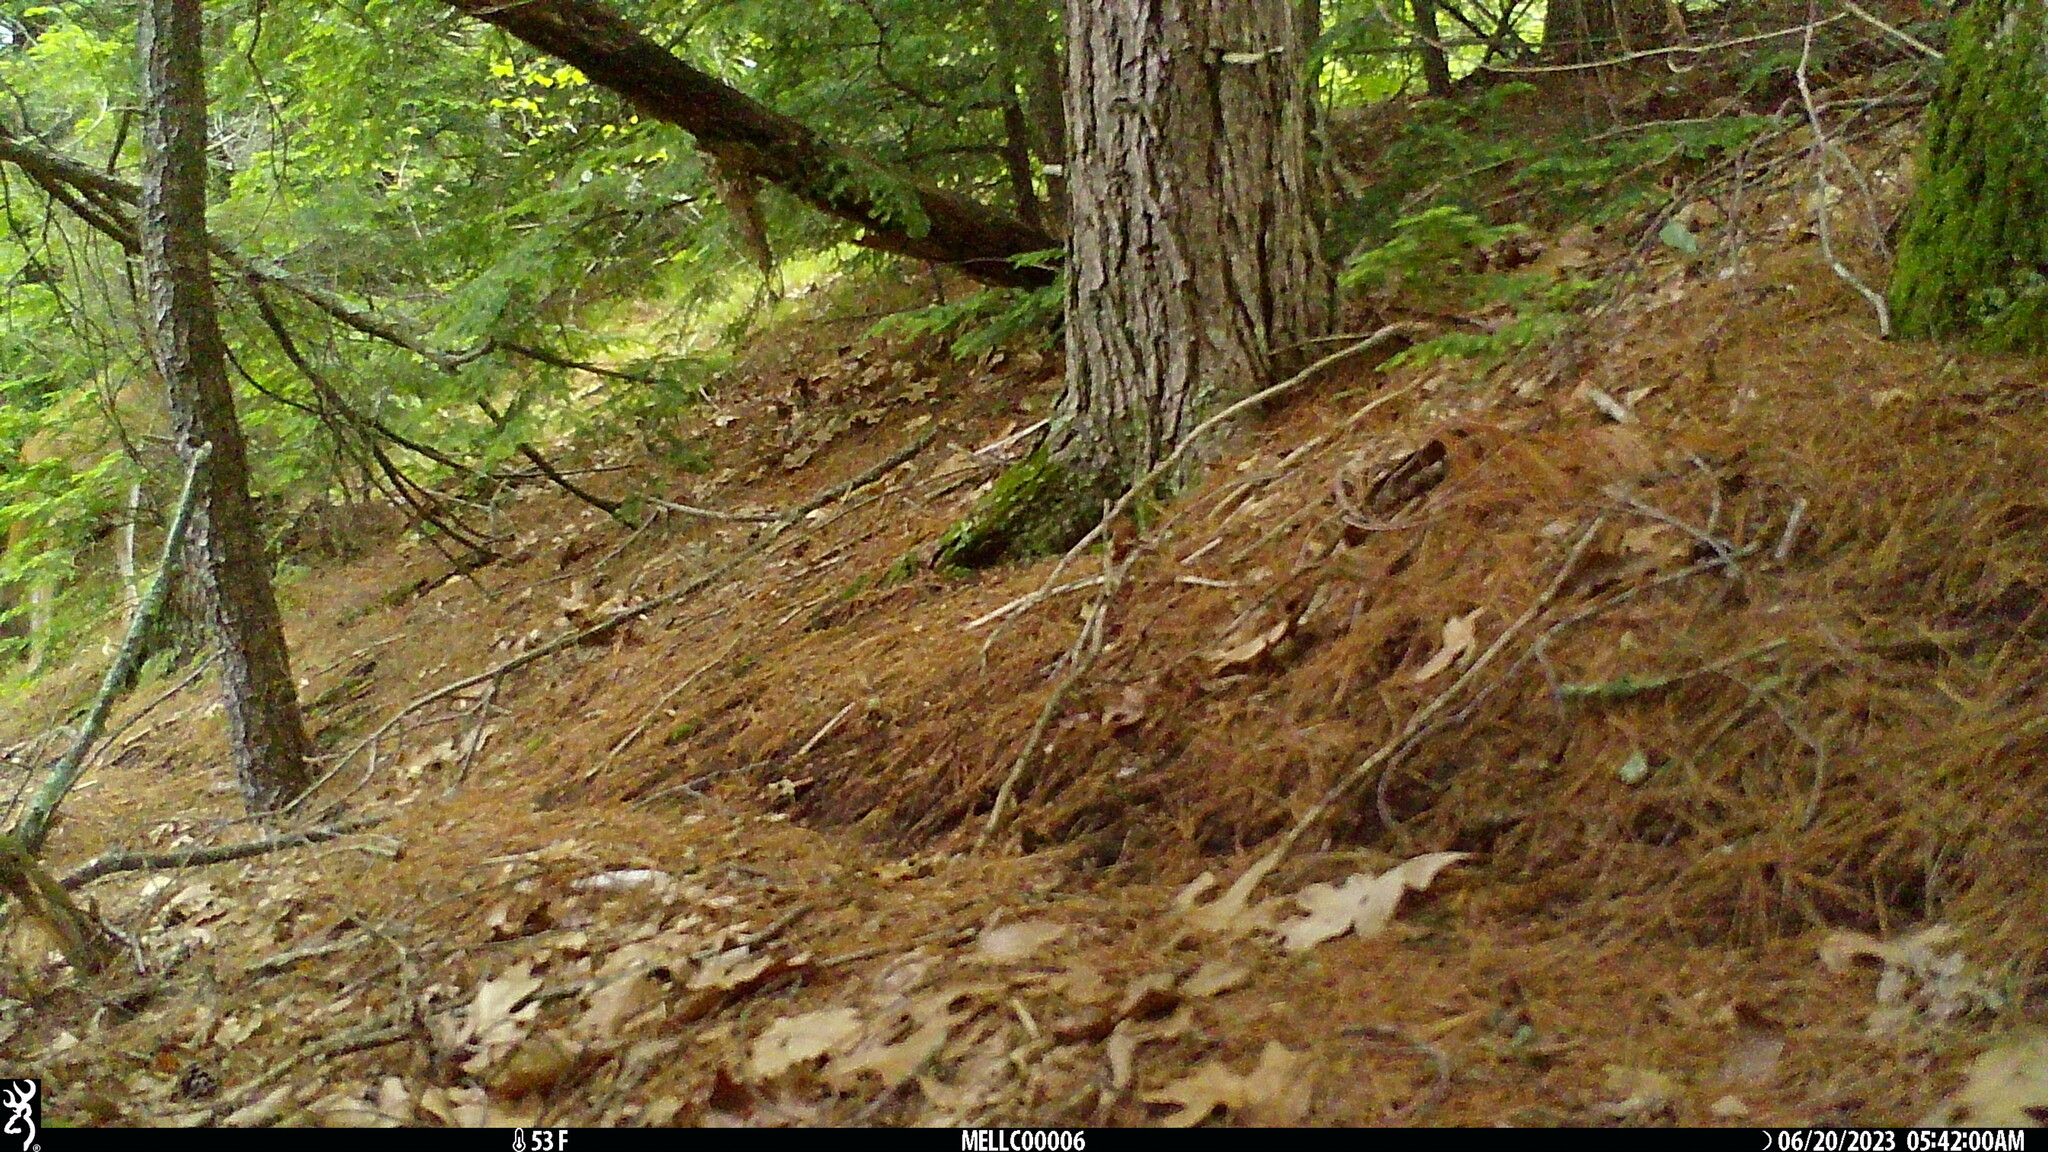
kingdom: Animalia
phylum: Chordata
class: Mammalia
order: Artiodactyla
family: Cervidae
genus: Odocoileus
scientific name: Odocoileus virginianus
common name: White-tailed deer
